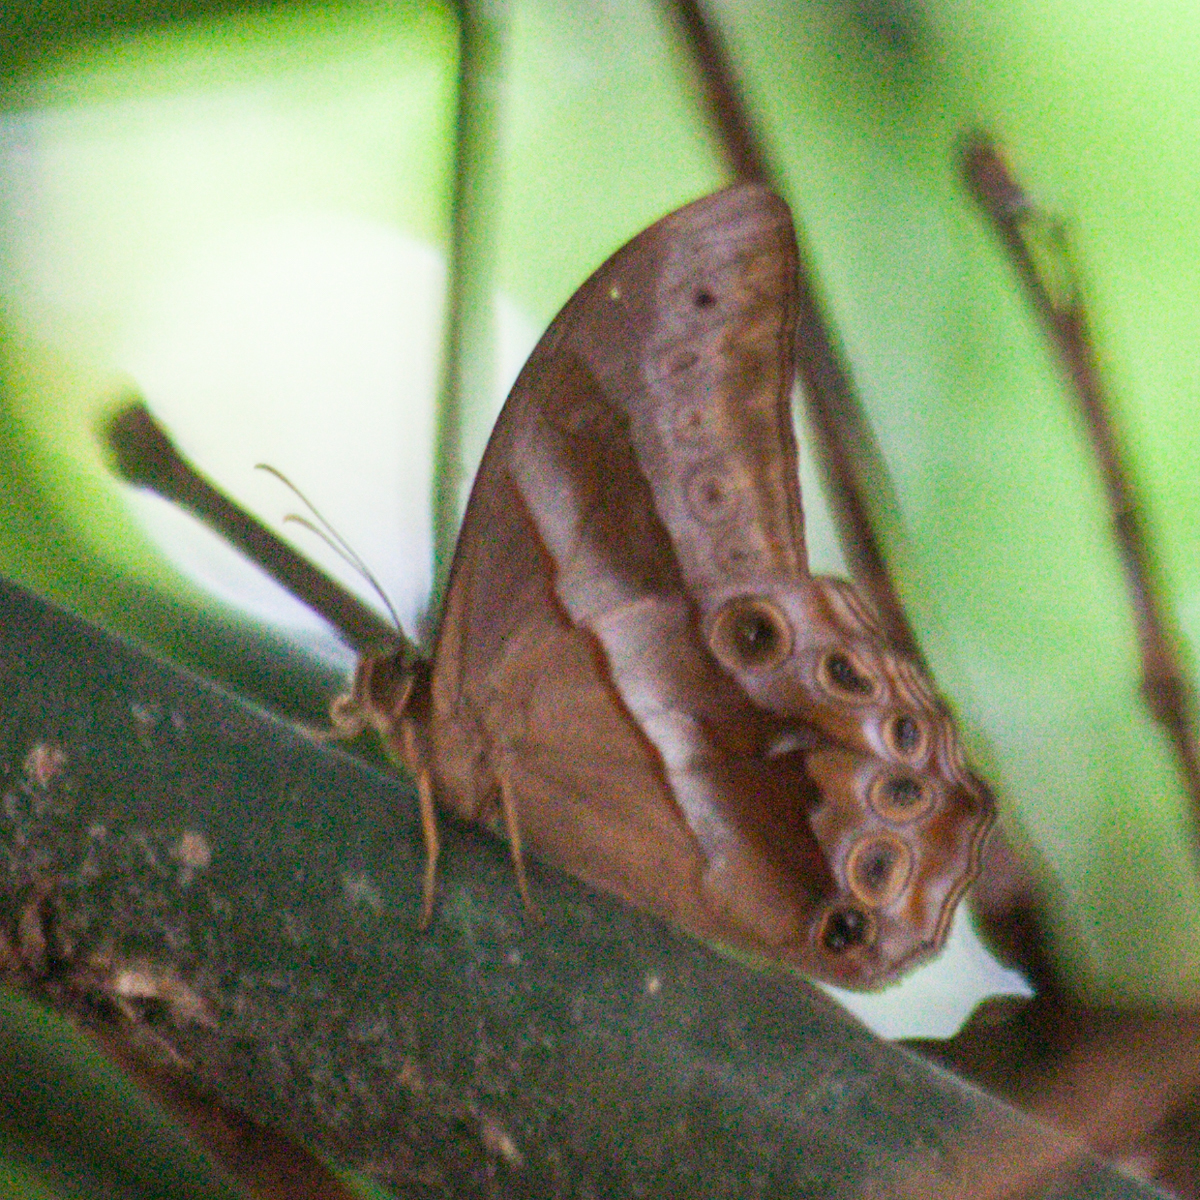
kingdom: Animalia
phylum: Arthropoda
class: Insecta
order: Lepidoptera
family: Nymphalidae
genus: Lethe
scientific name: Lethe mekara
